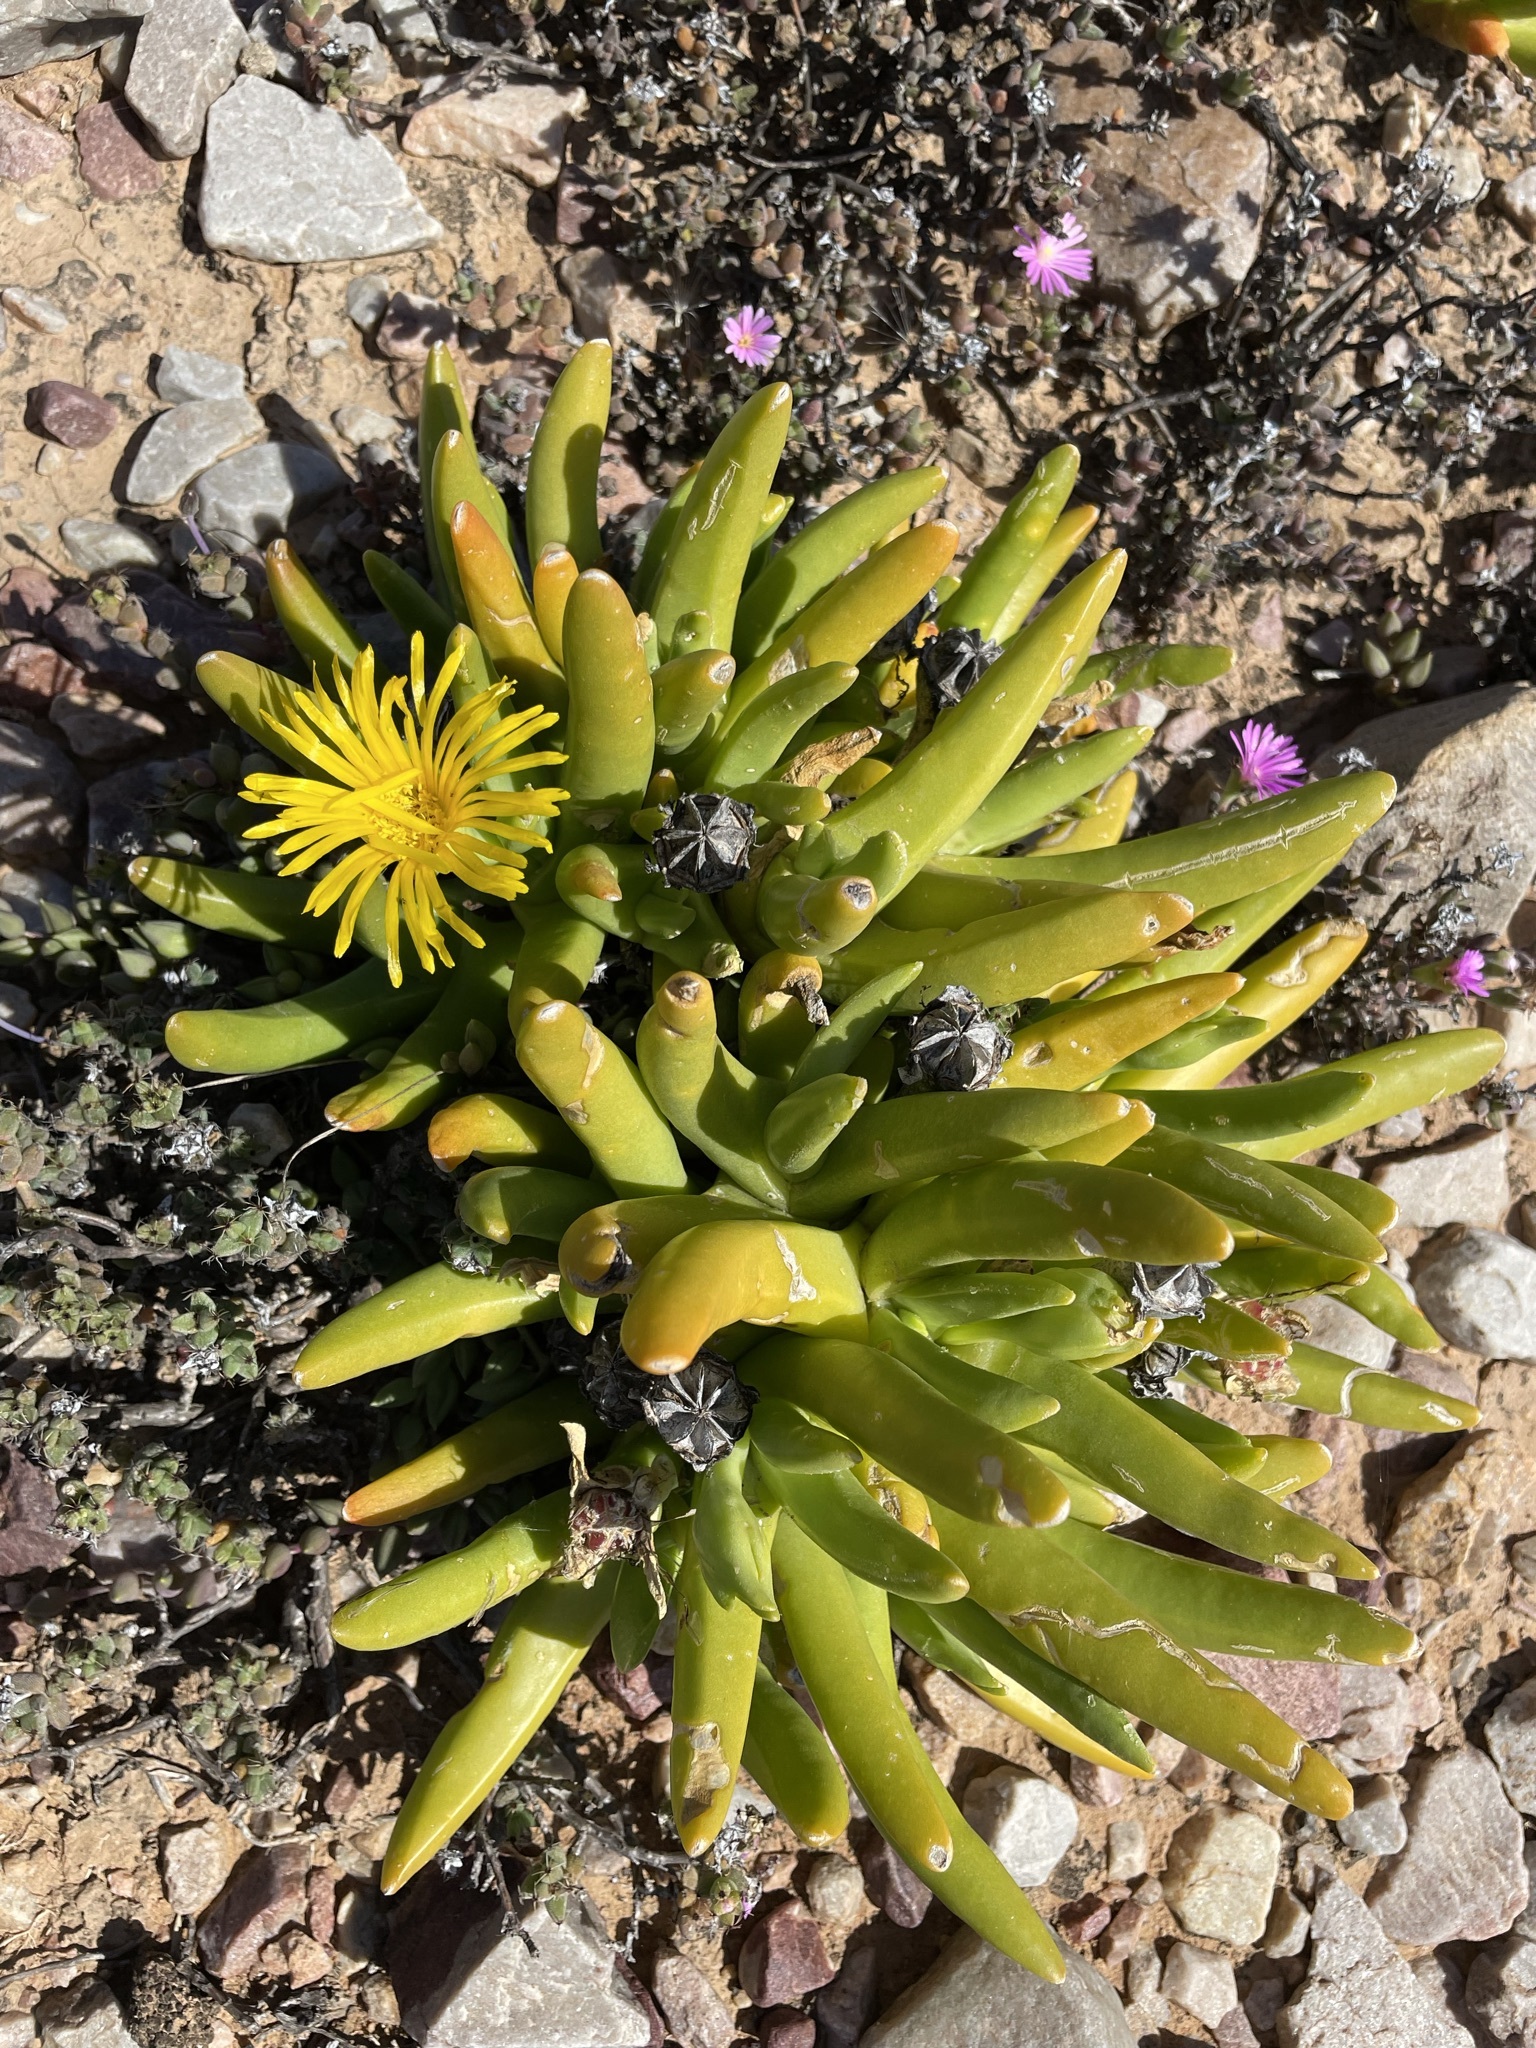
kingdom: Plantae
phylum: Tracheophyta
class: Magnoliopsida
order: Caryophyllales
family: Aizoaceae
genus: Glottiphyllum
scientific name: Glottiphyllum regium
